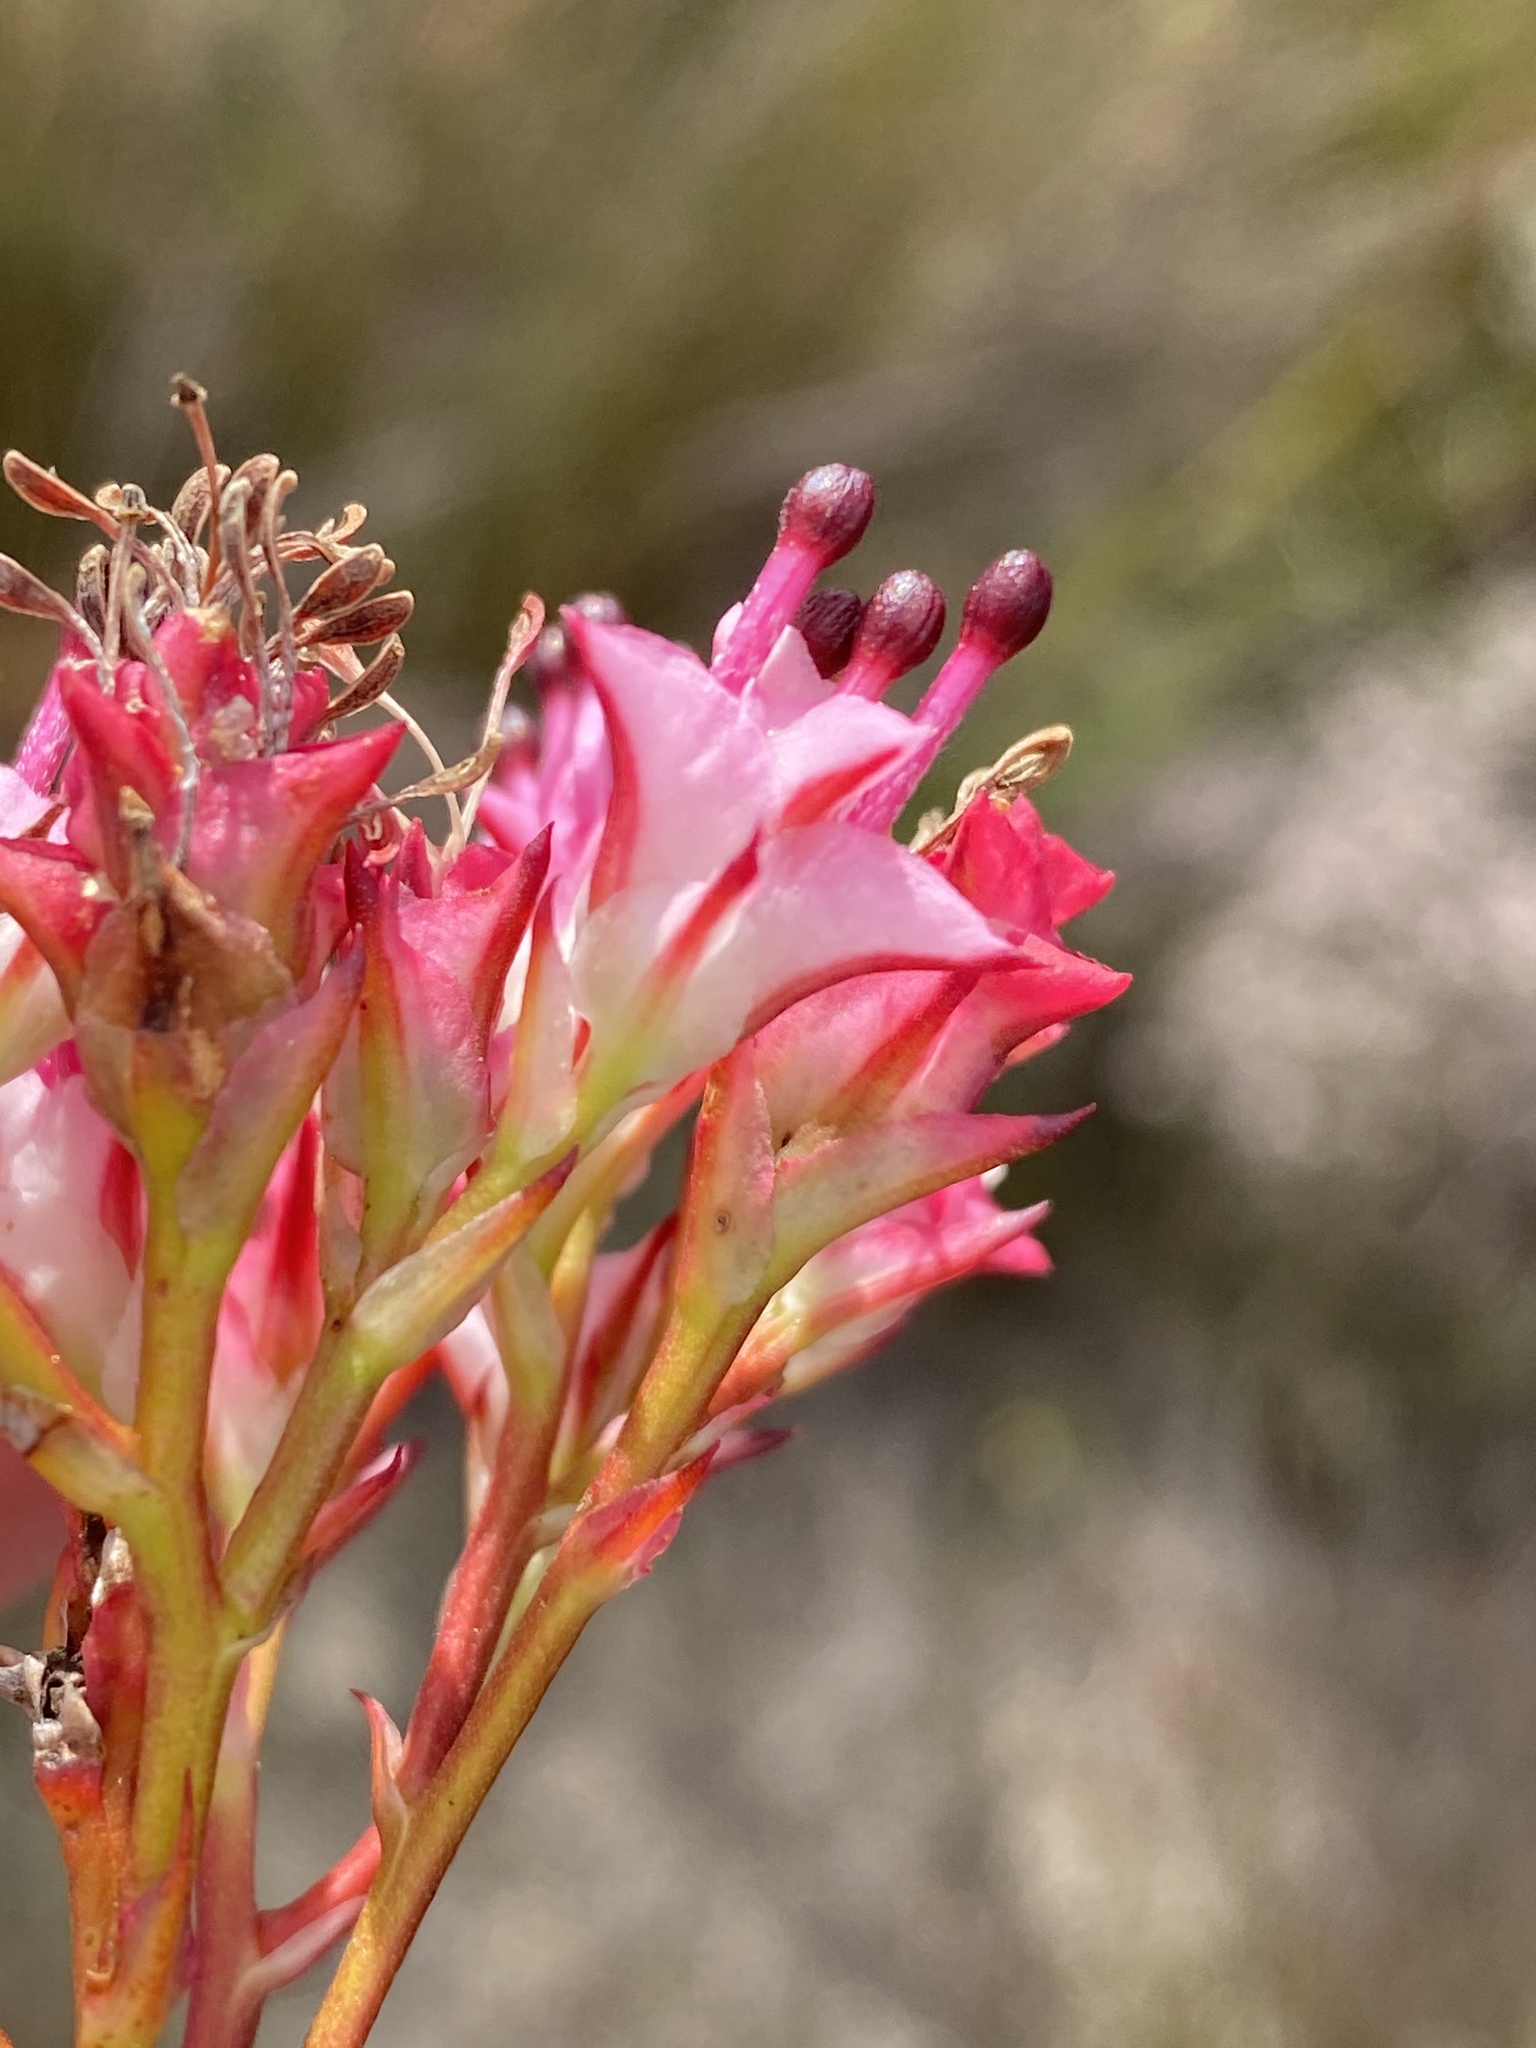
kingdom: Plantae
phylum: Tracheophyta
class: Magnoliopsida
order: Proteales
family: Proteaceae
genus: Serruria
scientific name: Serruria meisneriana
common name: Dainty spiderhead
